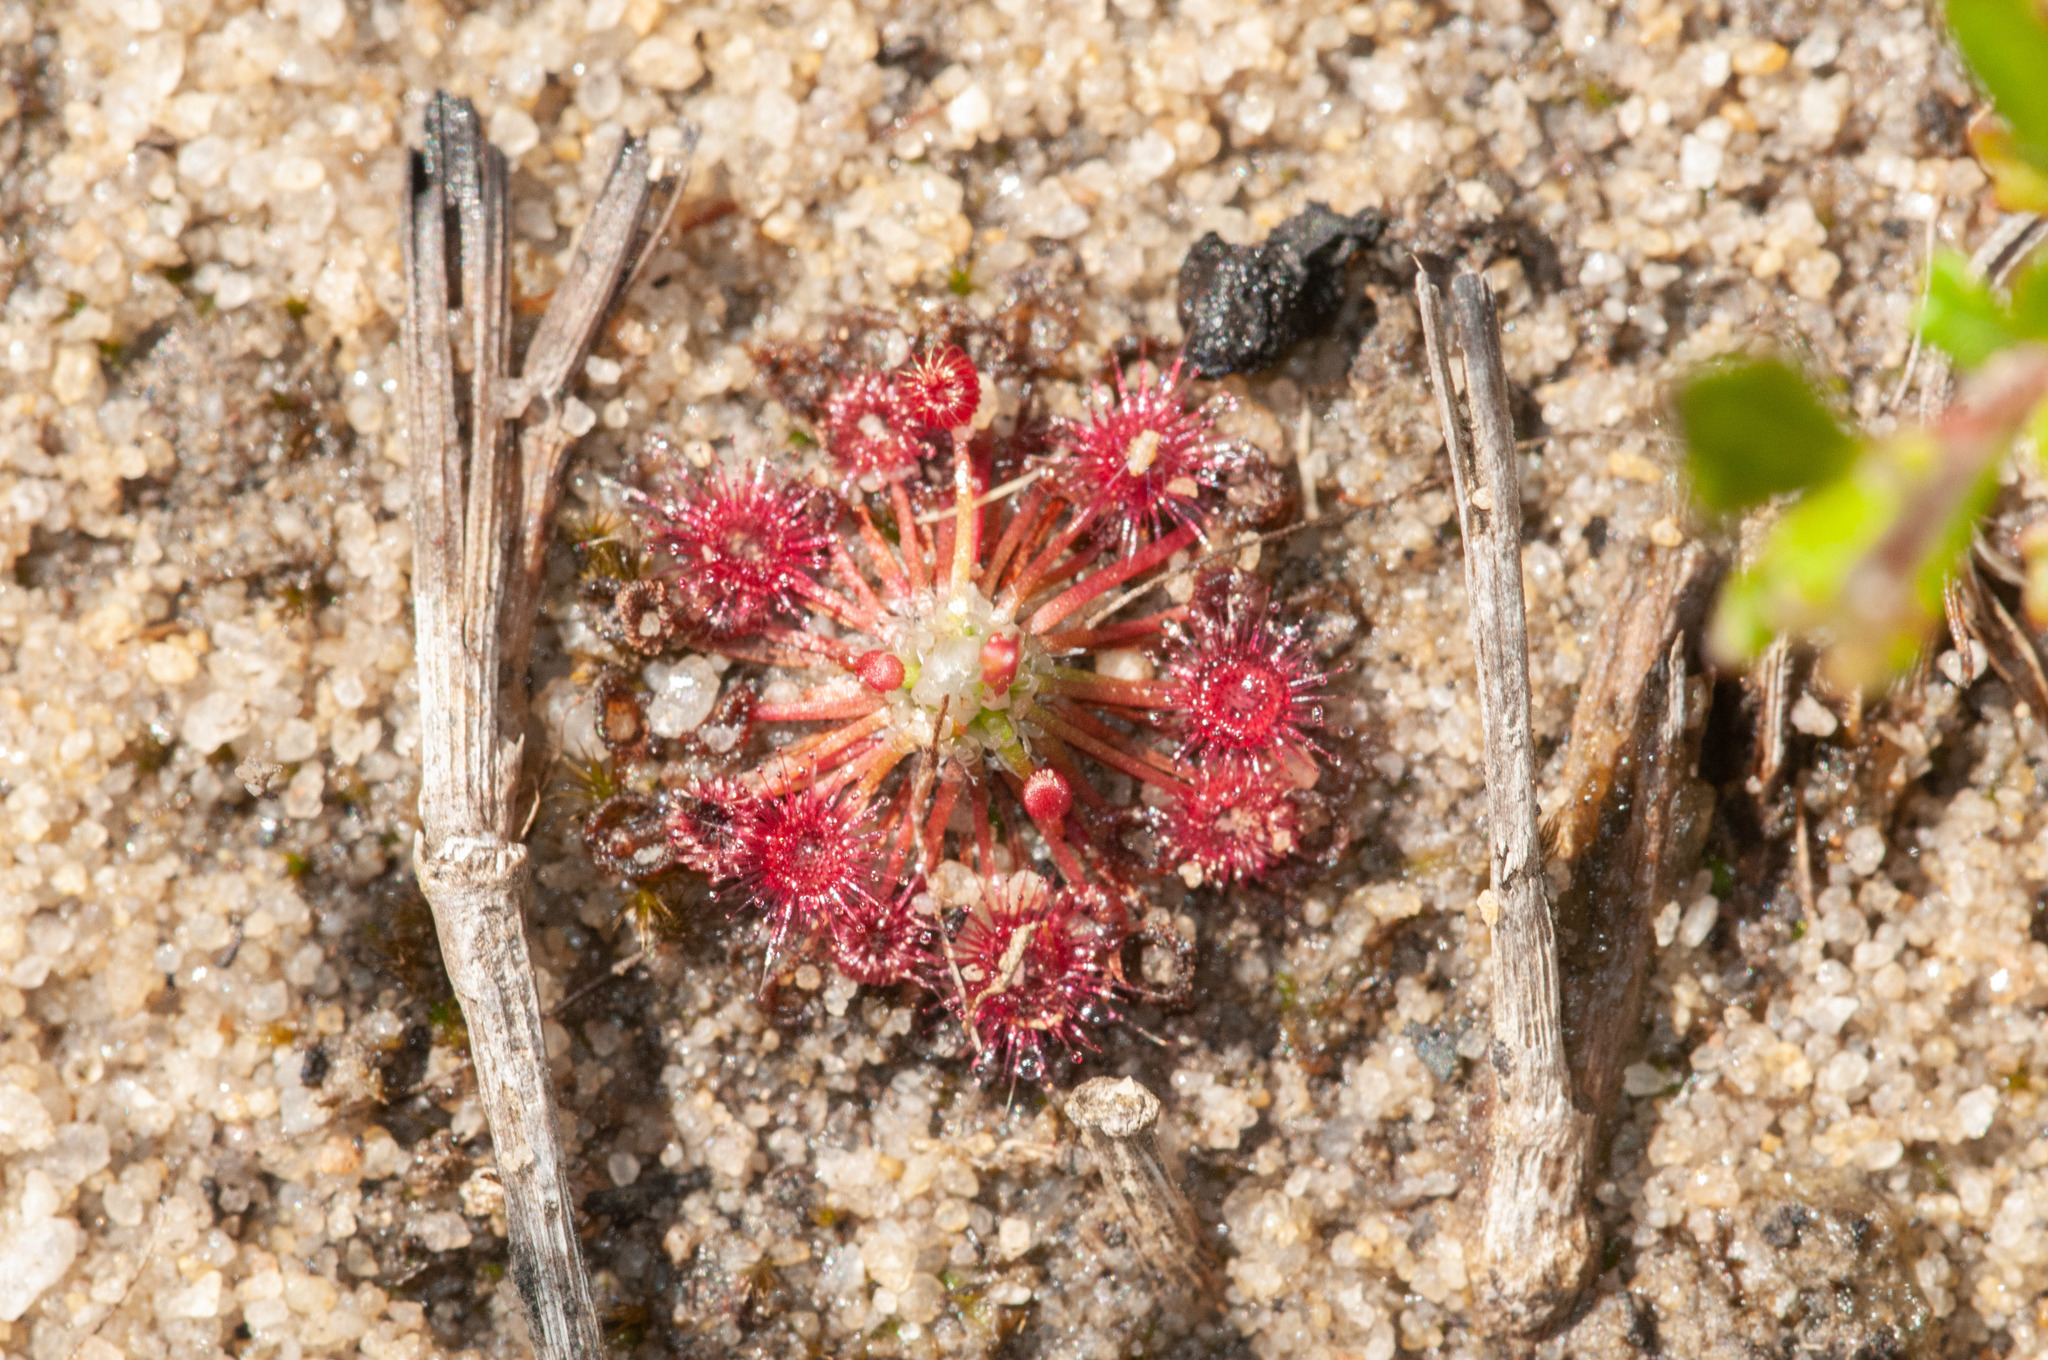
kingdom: Plantae
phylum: Tracheophyta
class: Magnoliopsida
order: Caryophyllales
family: Droseraceae
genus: Drosera
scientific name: Drosera pygmaea
